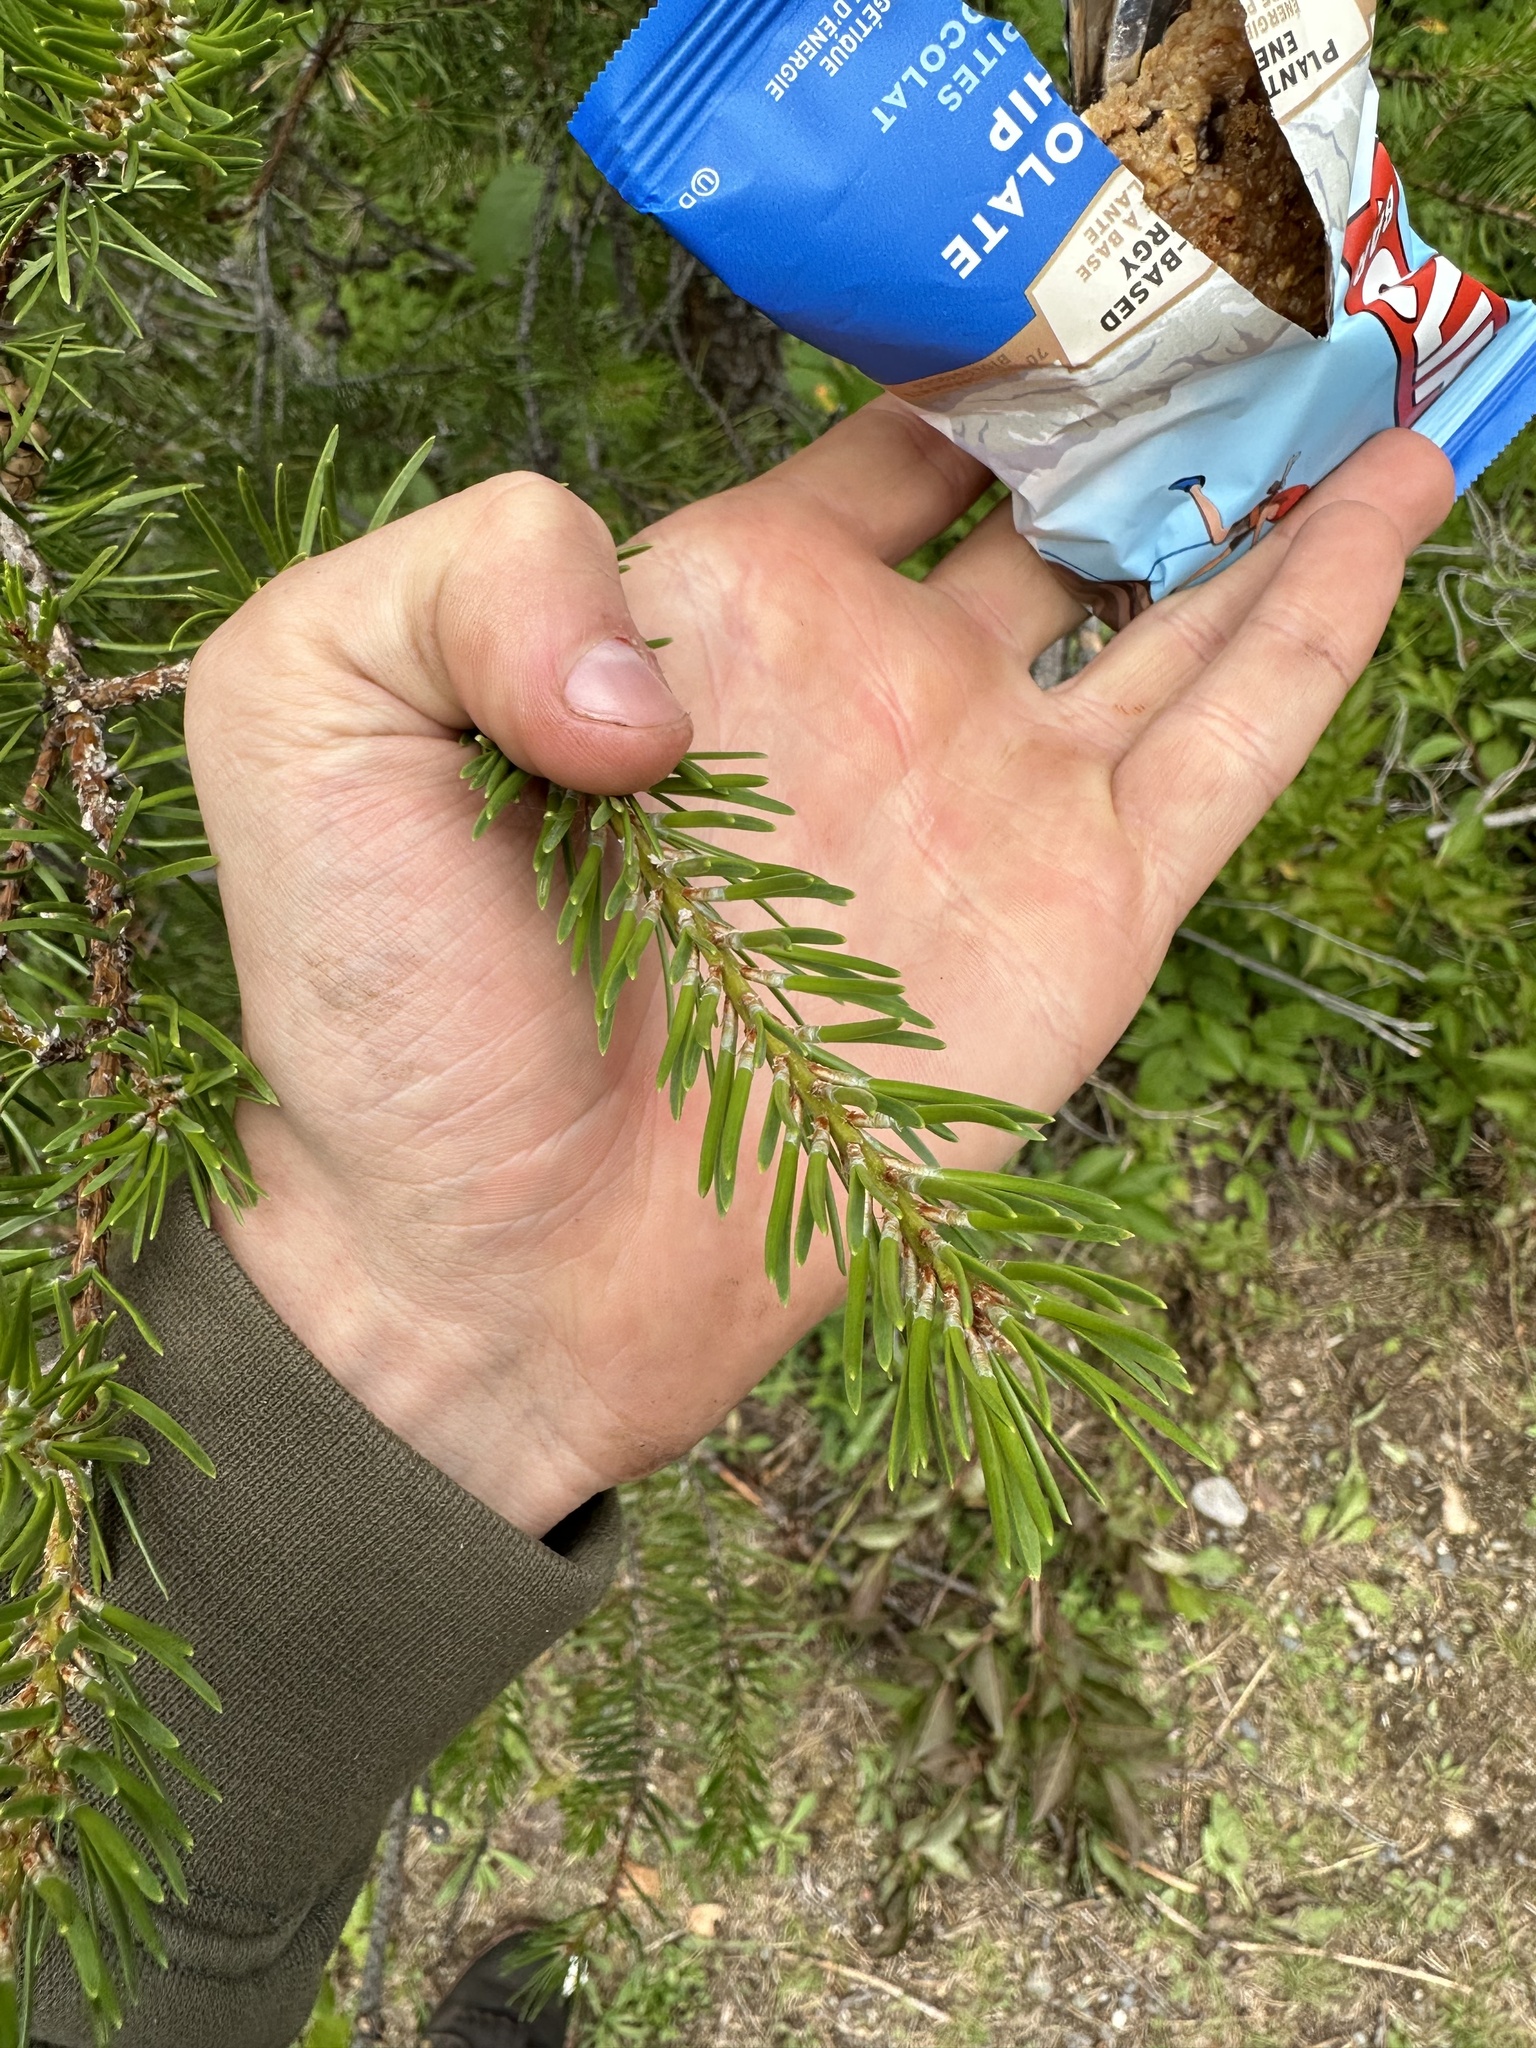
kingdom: Plantae
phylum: Tracheophyta
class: Pinopsida
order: Pinales
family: Pinaceae
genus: Pinus
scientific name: Pinus banksiana
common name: Jack pine
